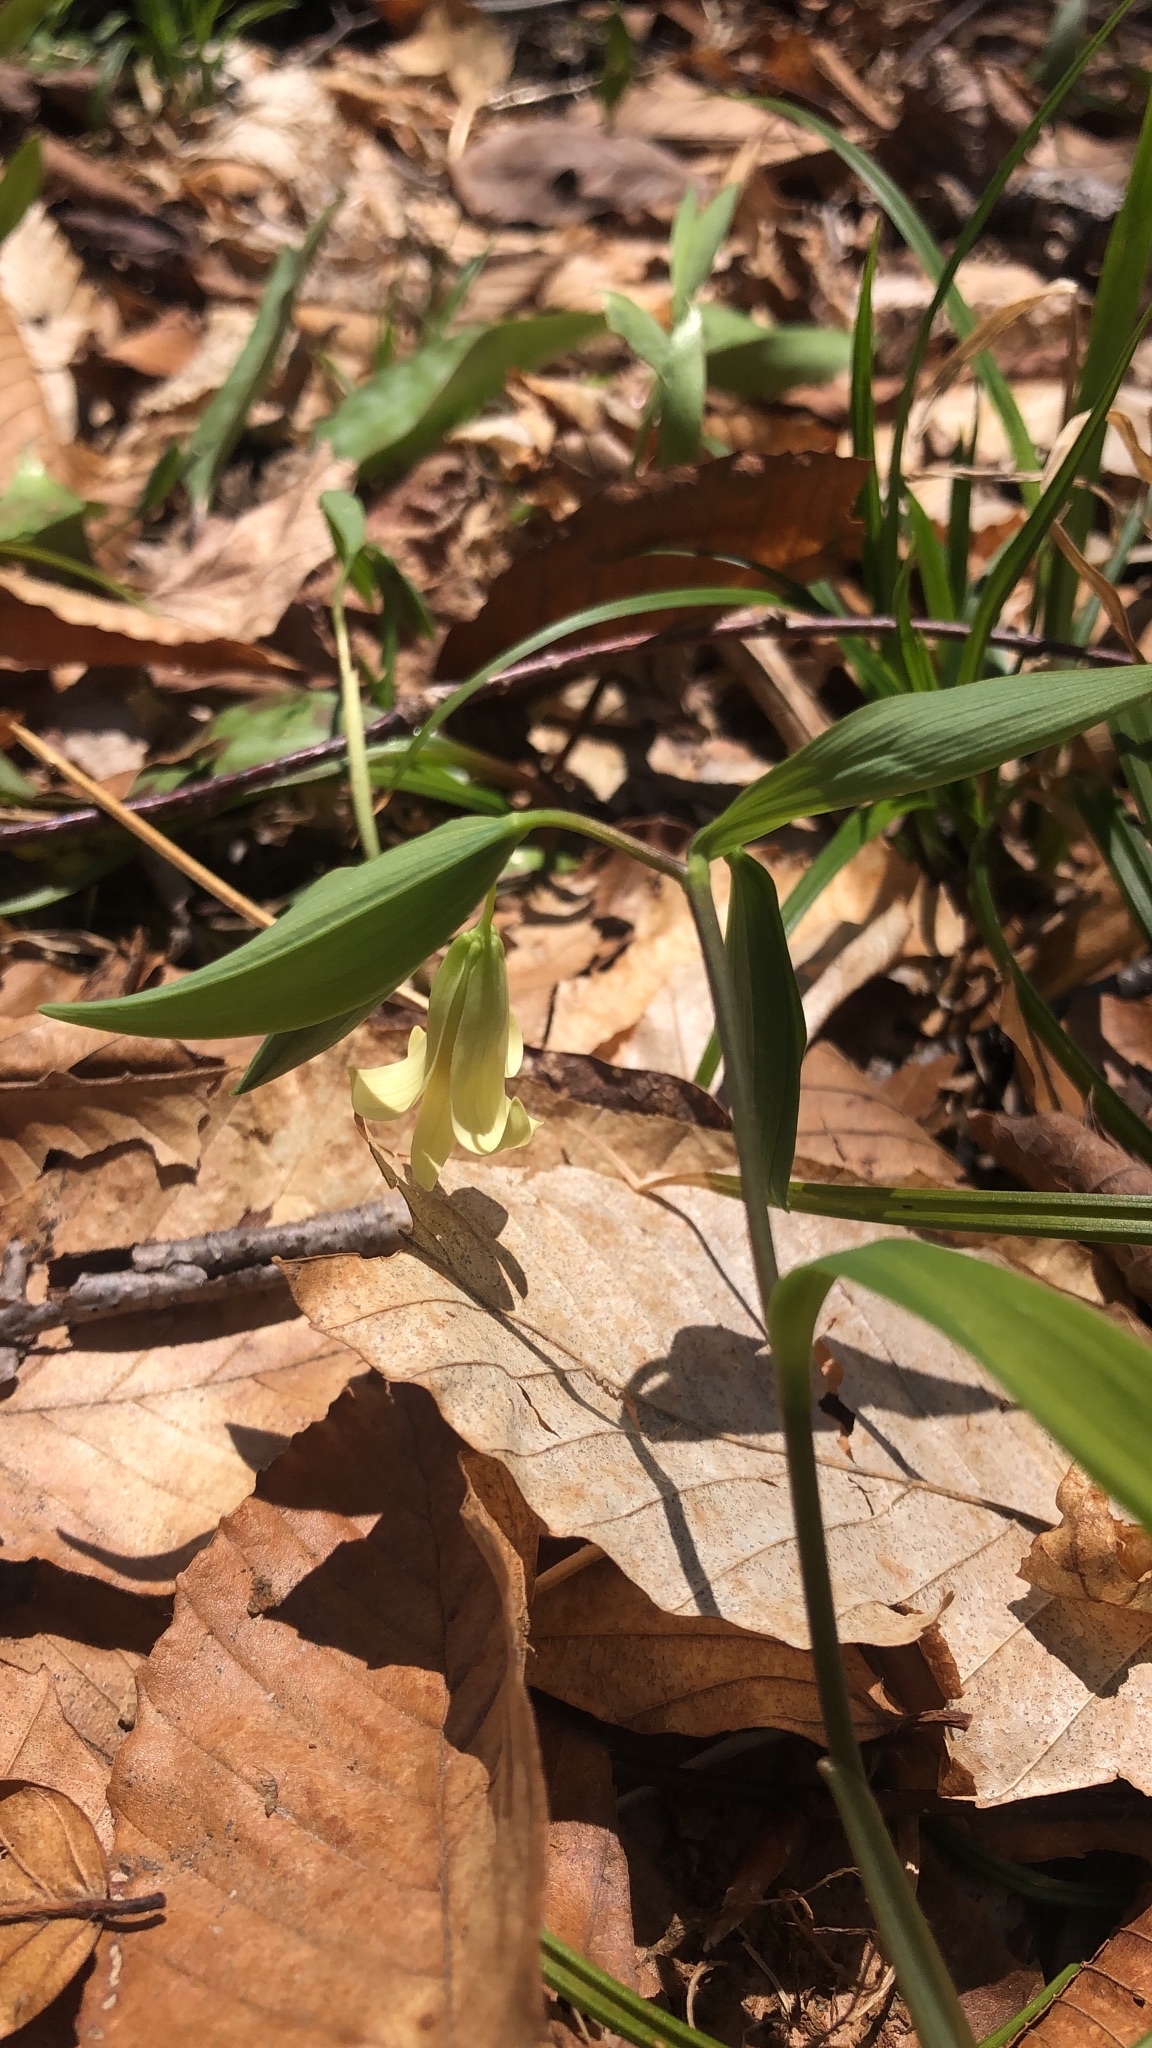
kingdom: Plantae
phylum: Tracheophyta
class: Liliopsida
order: Liliales
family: Colchicaceae
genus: Uvularia
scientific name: Uvularia sessilifolia
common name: Straw-lily
